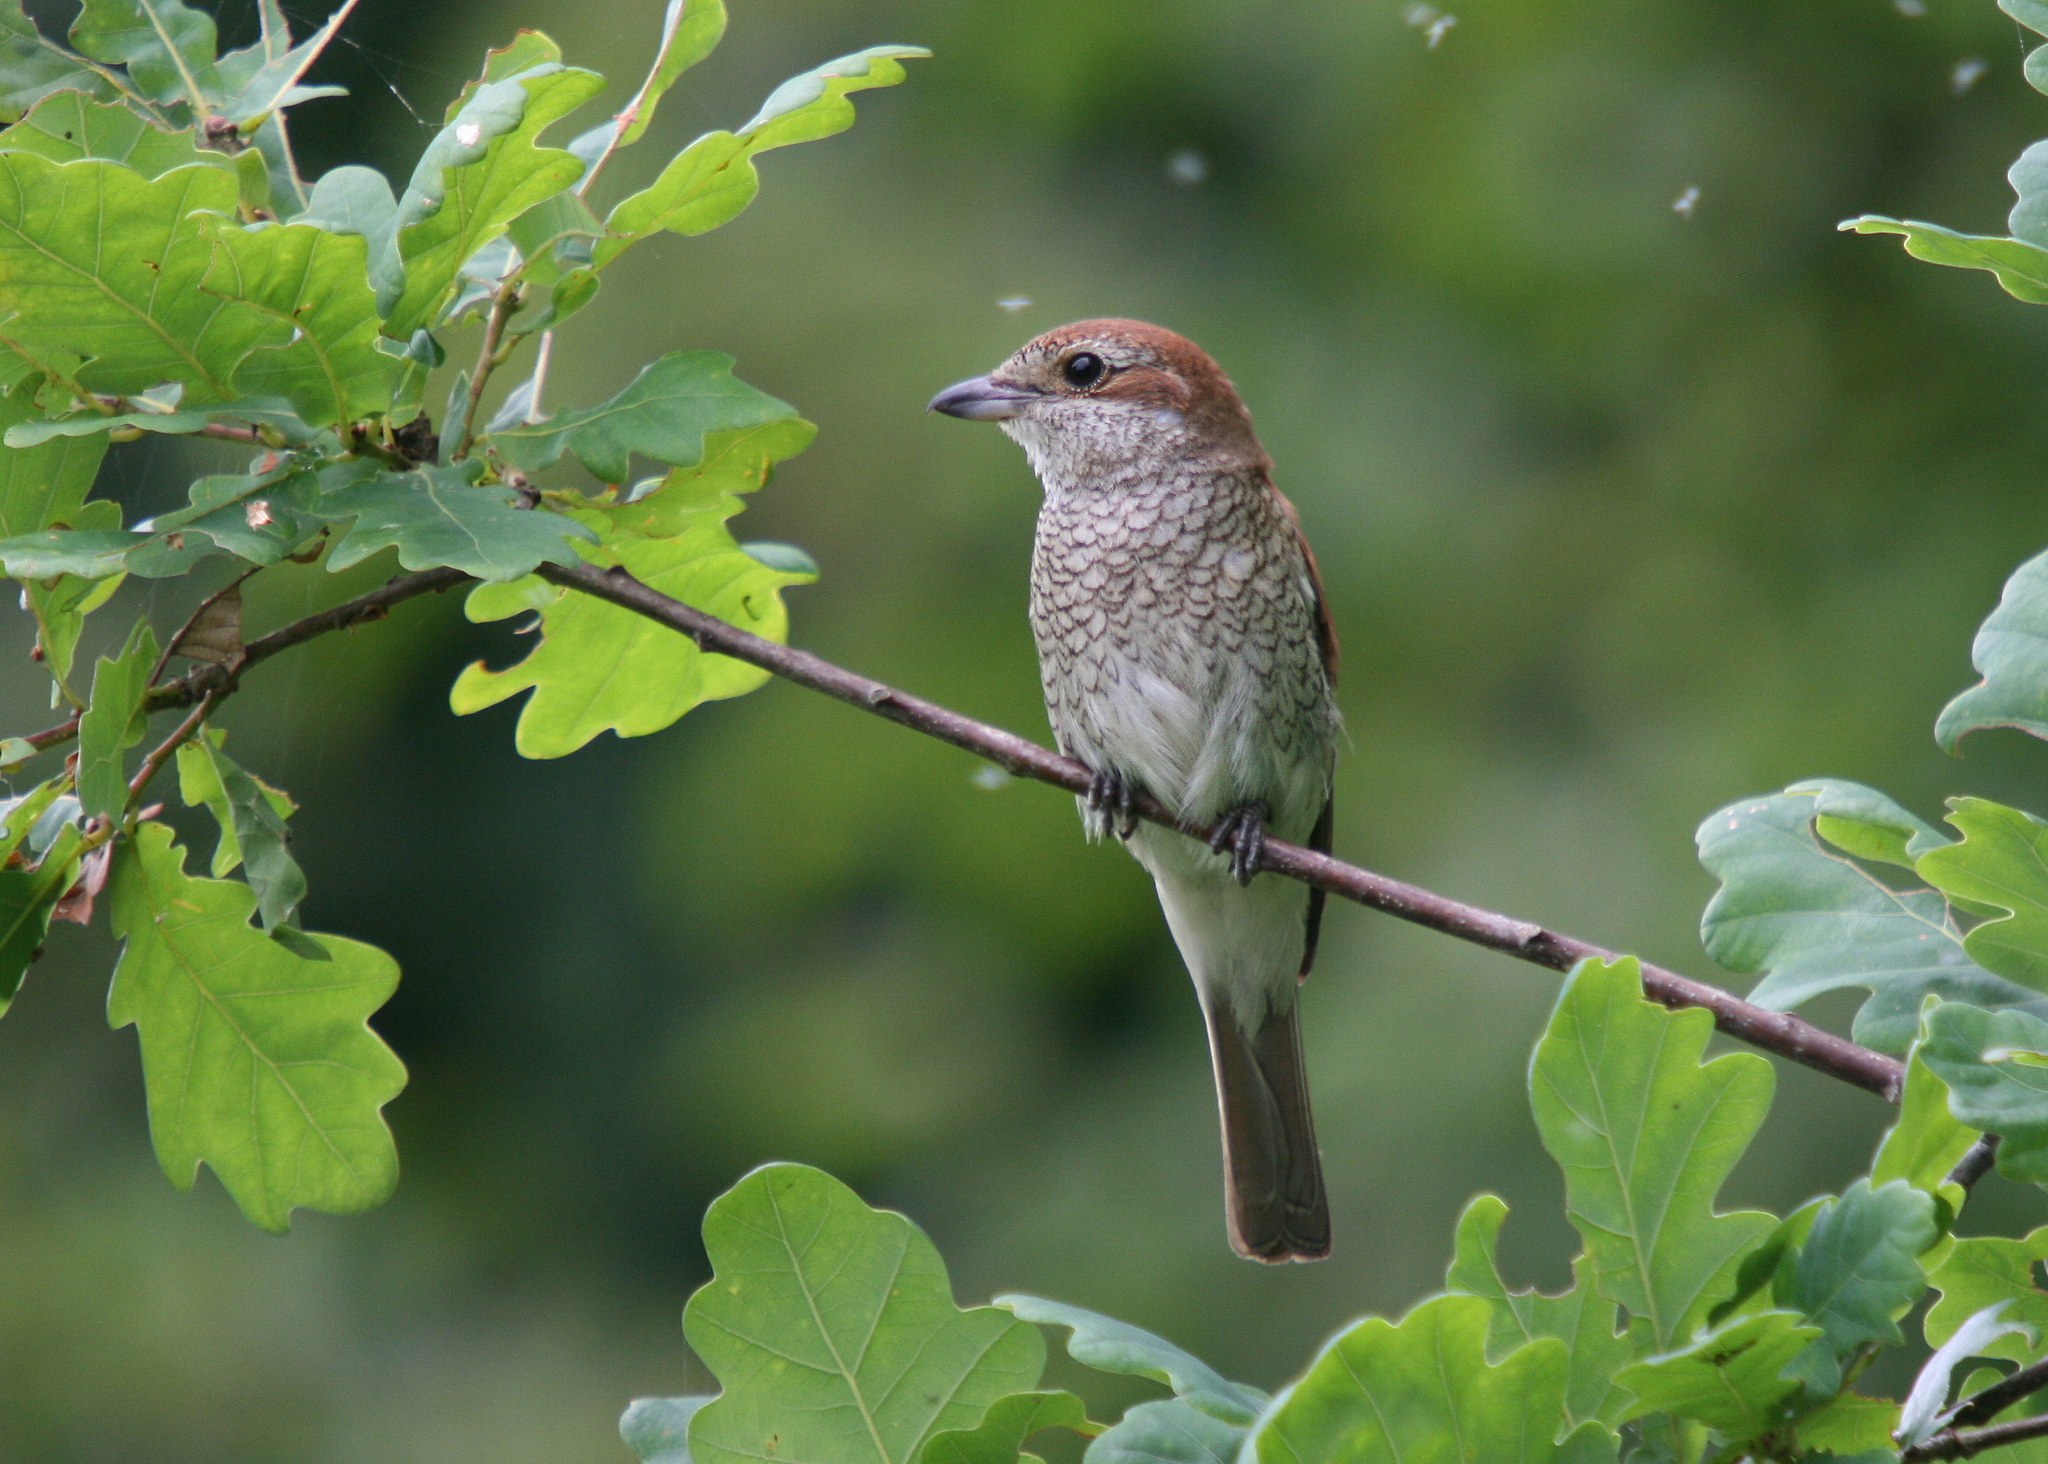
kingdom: Animalia
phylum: Chordata
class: Aves
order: Passeriformes
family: Laniidae
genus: Lanius
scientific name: Lanius collurio
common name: Red-backed shrike
